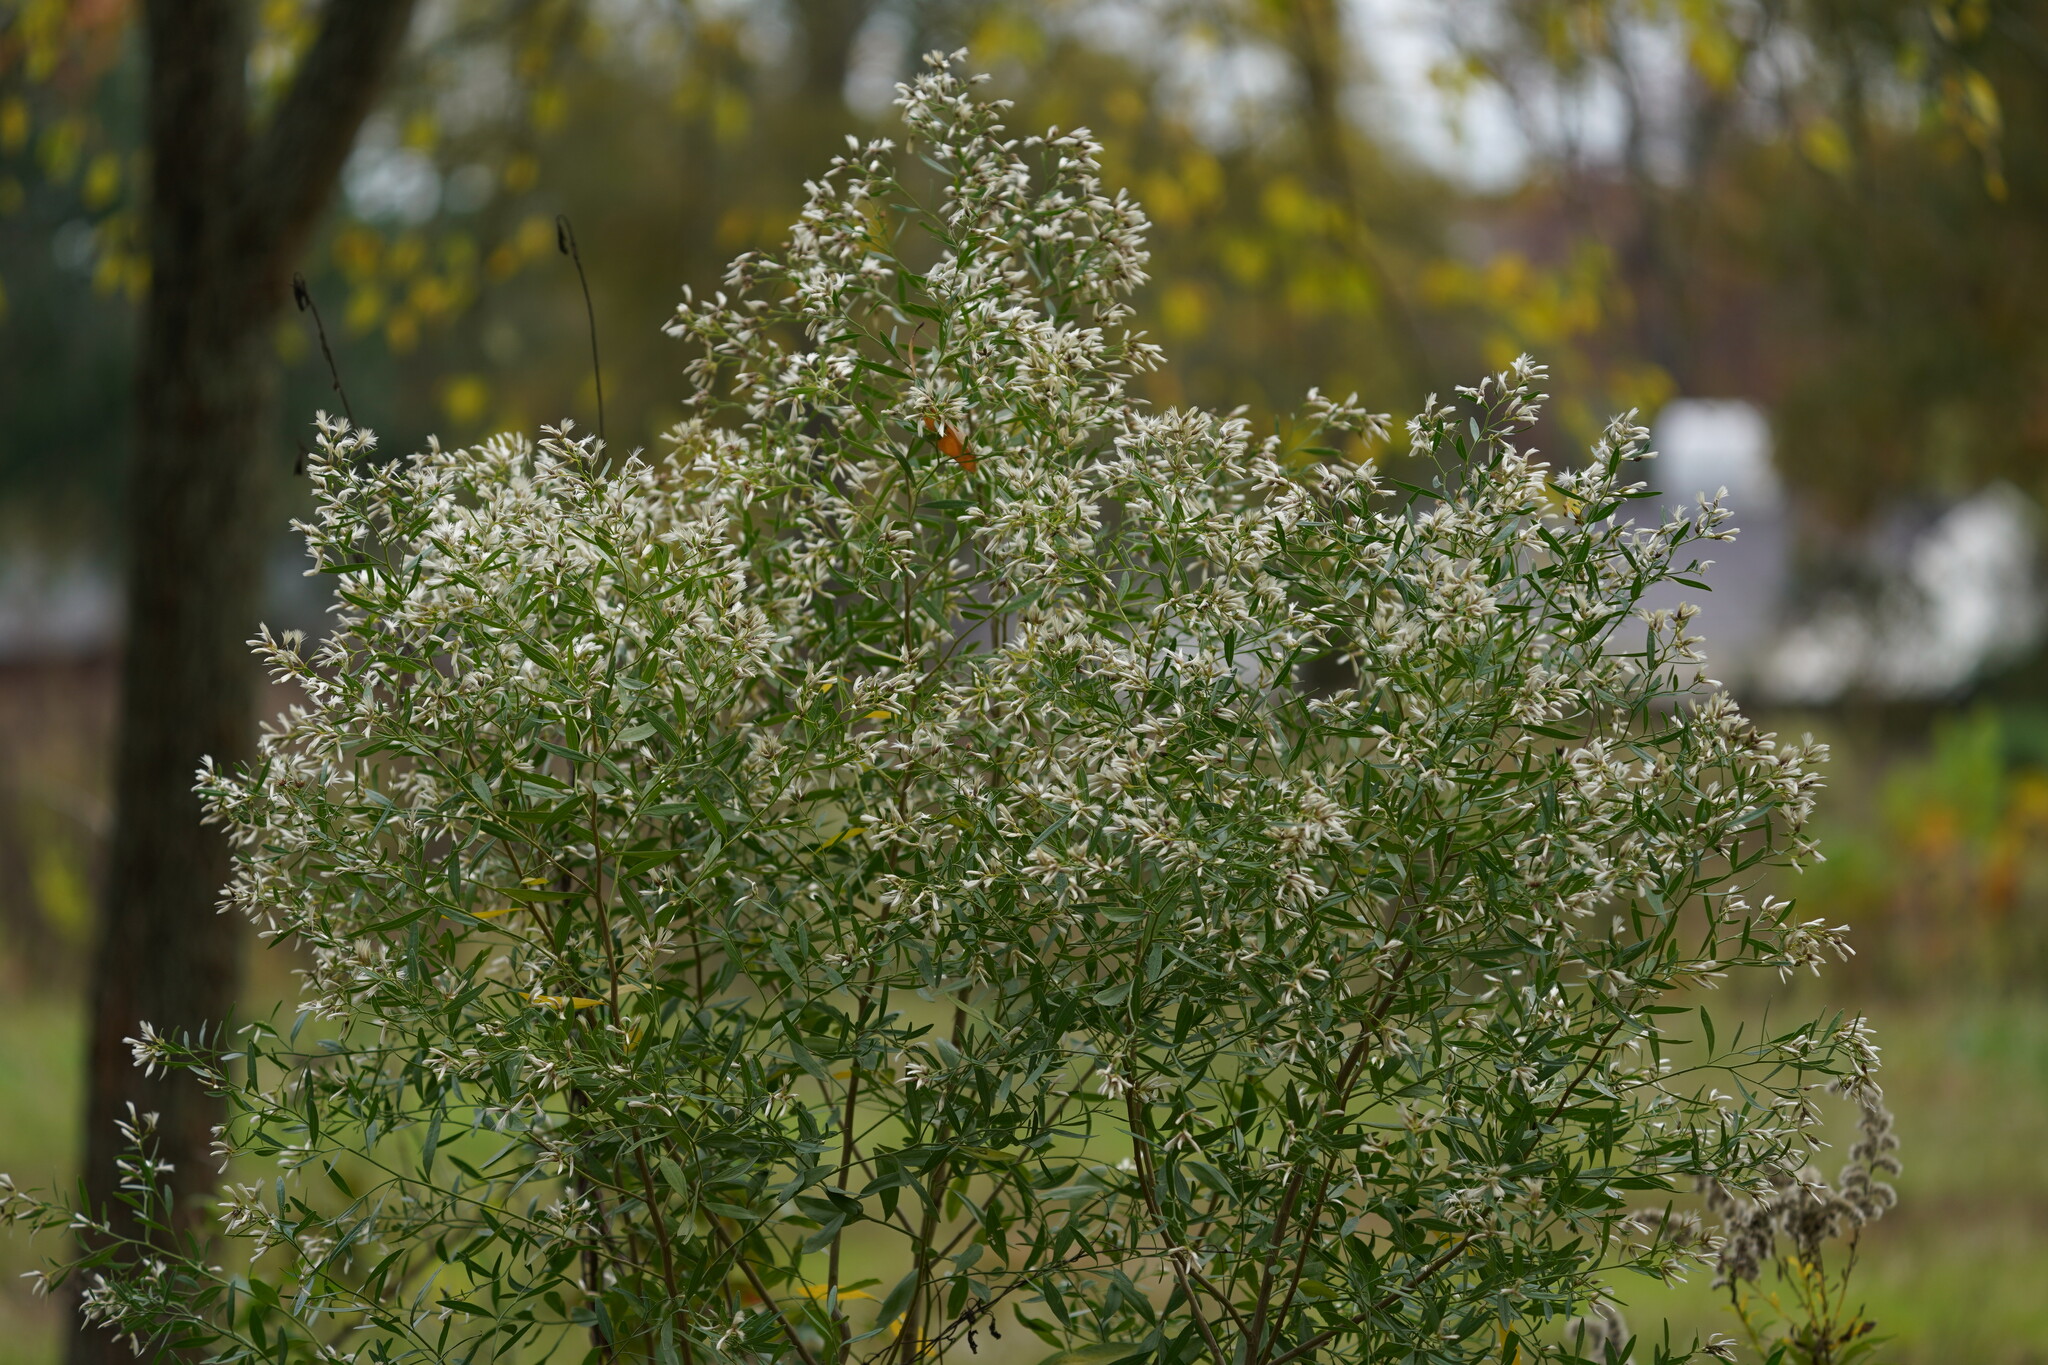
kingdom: Plantae
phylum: Tracheophyta
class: Magnoliopsida
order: Asterales
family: Asteraceae
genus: Baccharis
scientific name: Baccharis halimifolia
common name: Eastern baccharis
